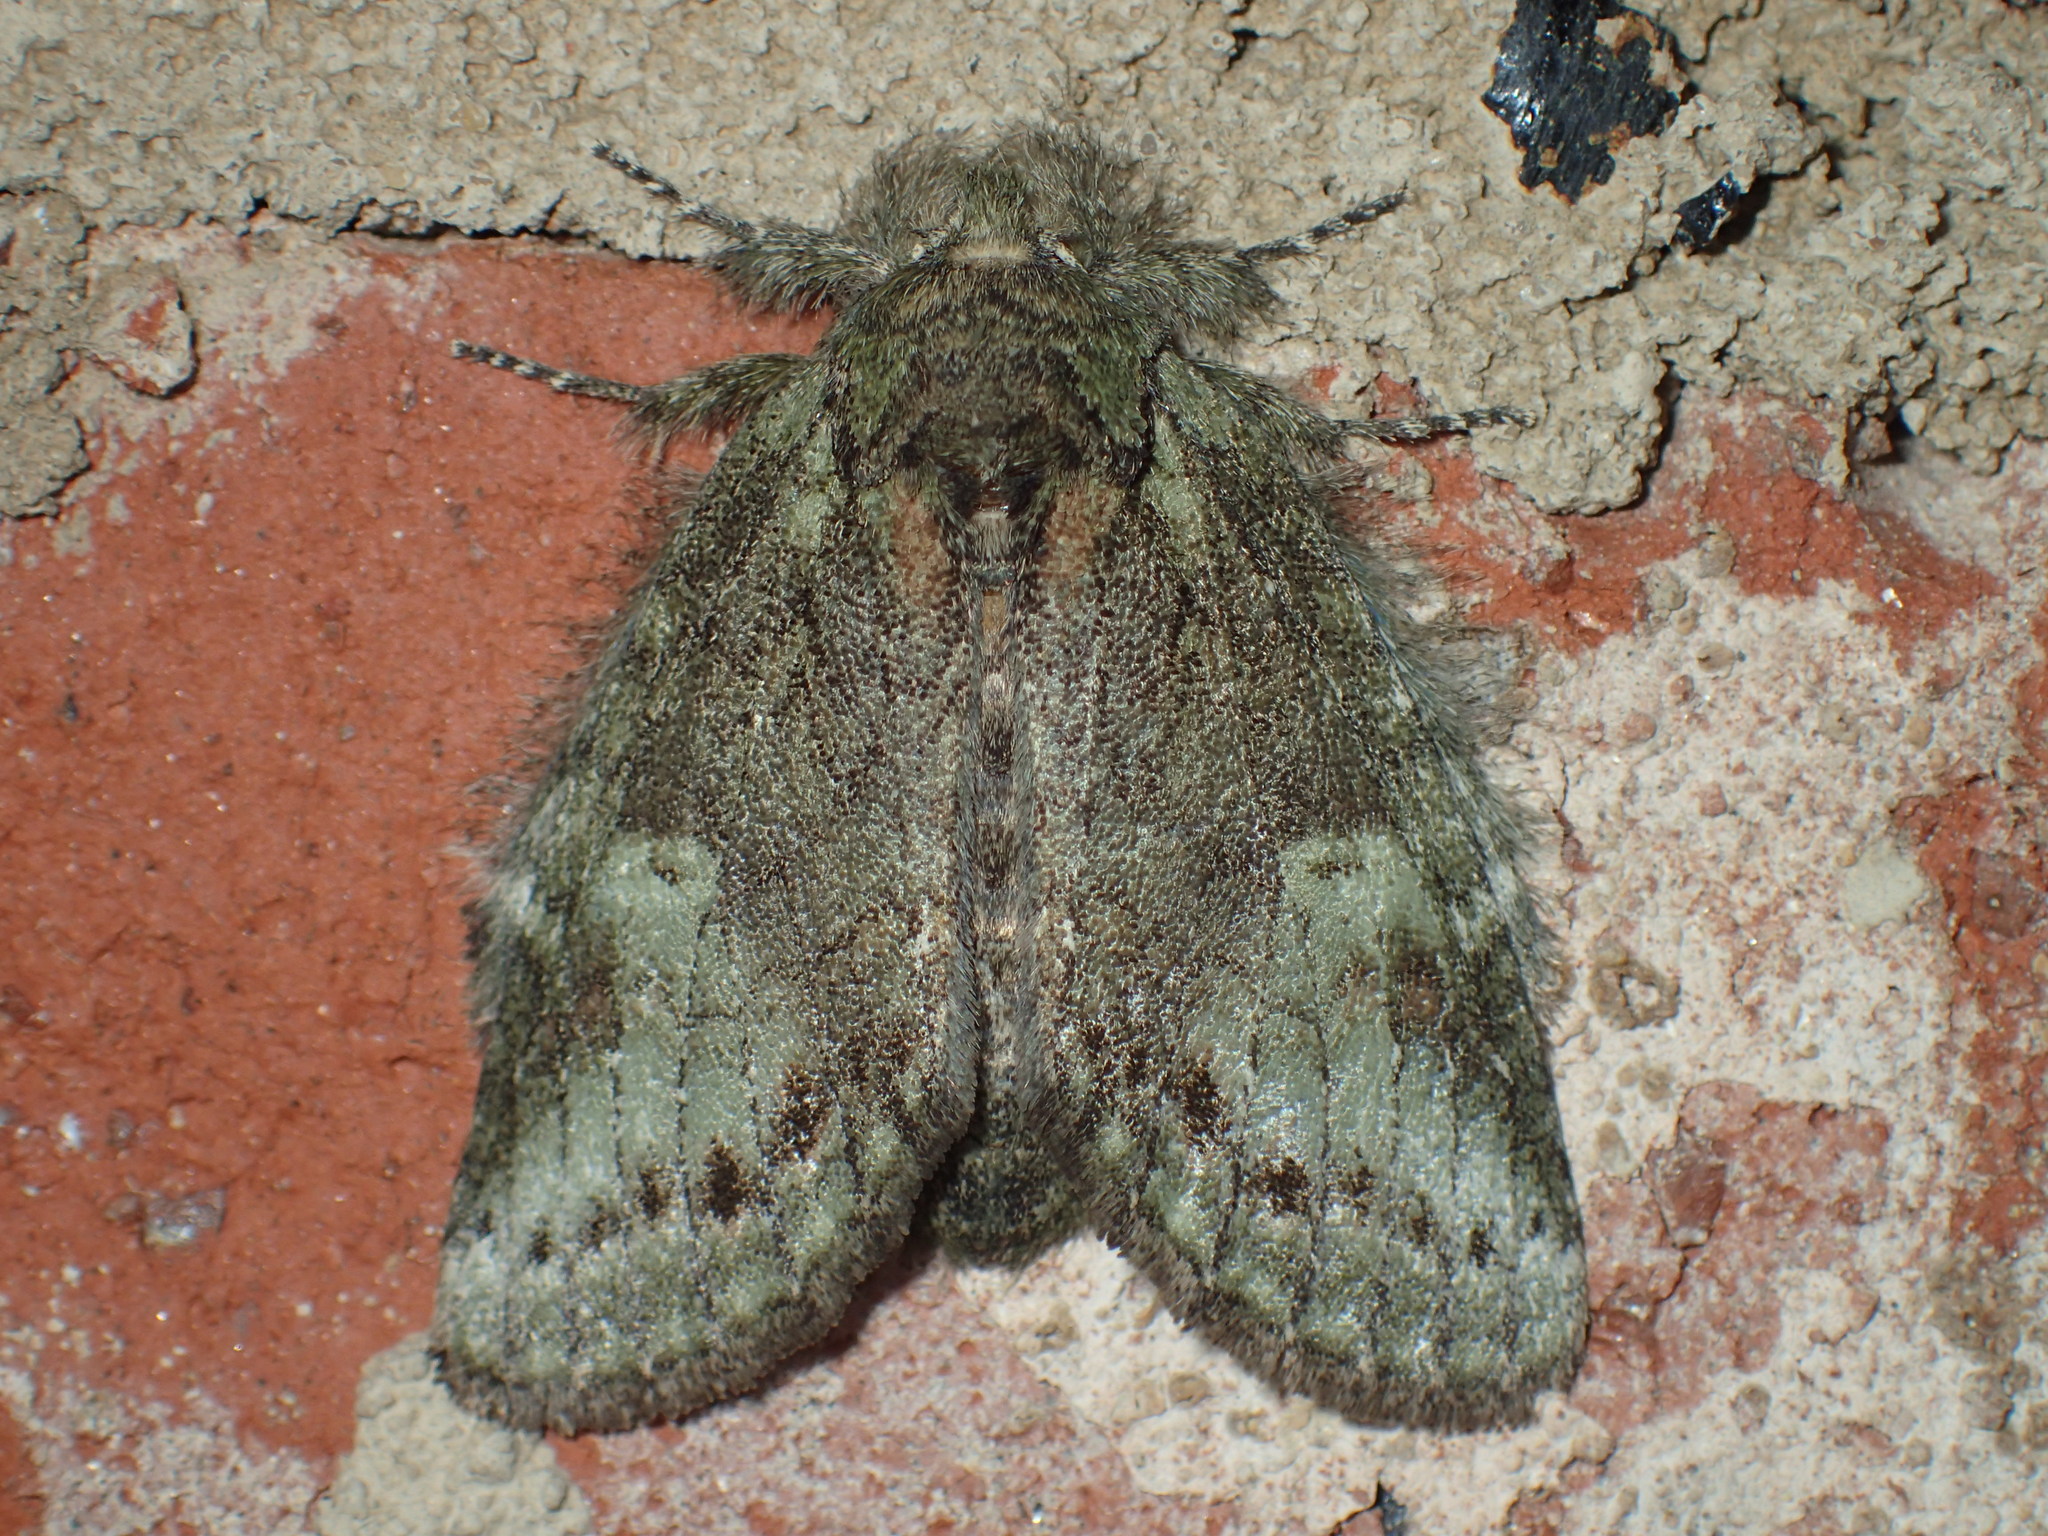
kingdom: Animalia
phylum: Arthropoda
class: Insecta
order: Lepidoptera
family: Notodontidae
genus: Disphragis
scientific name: Disphragis Cecrita guttivitta
